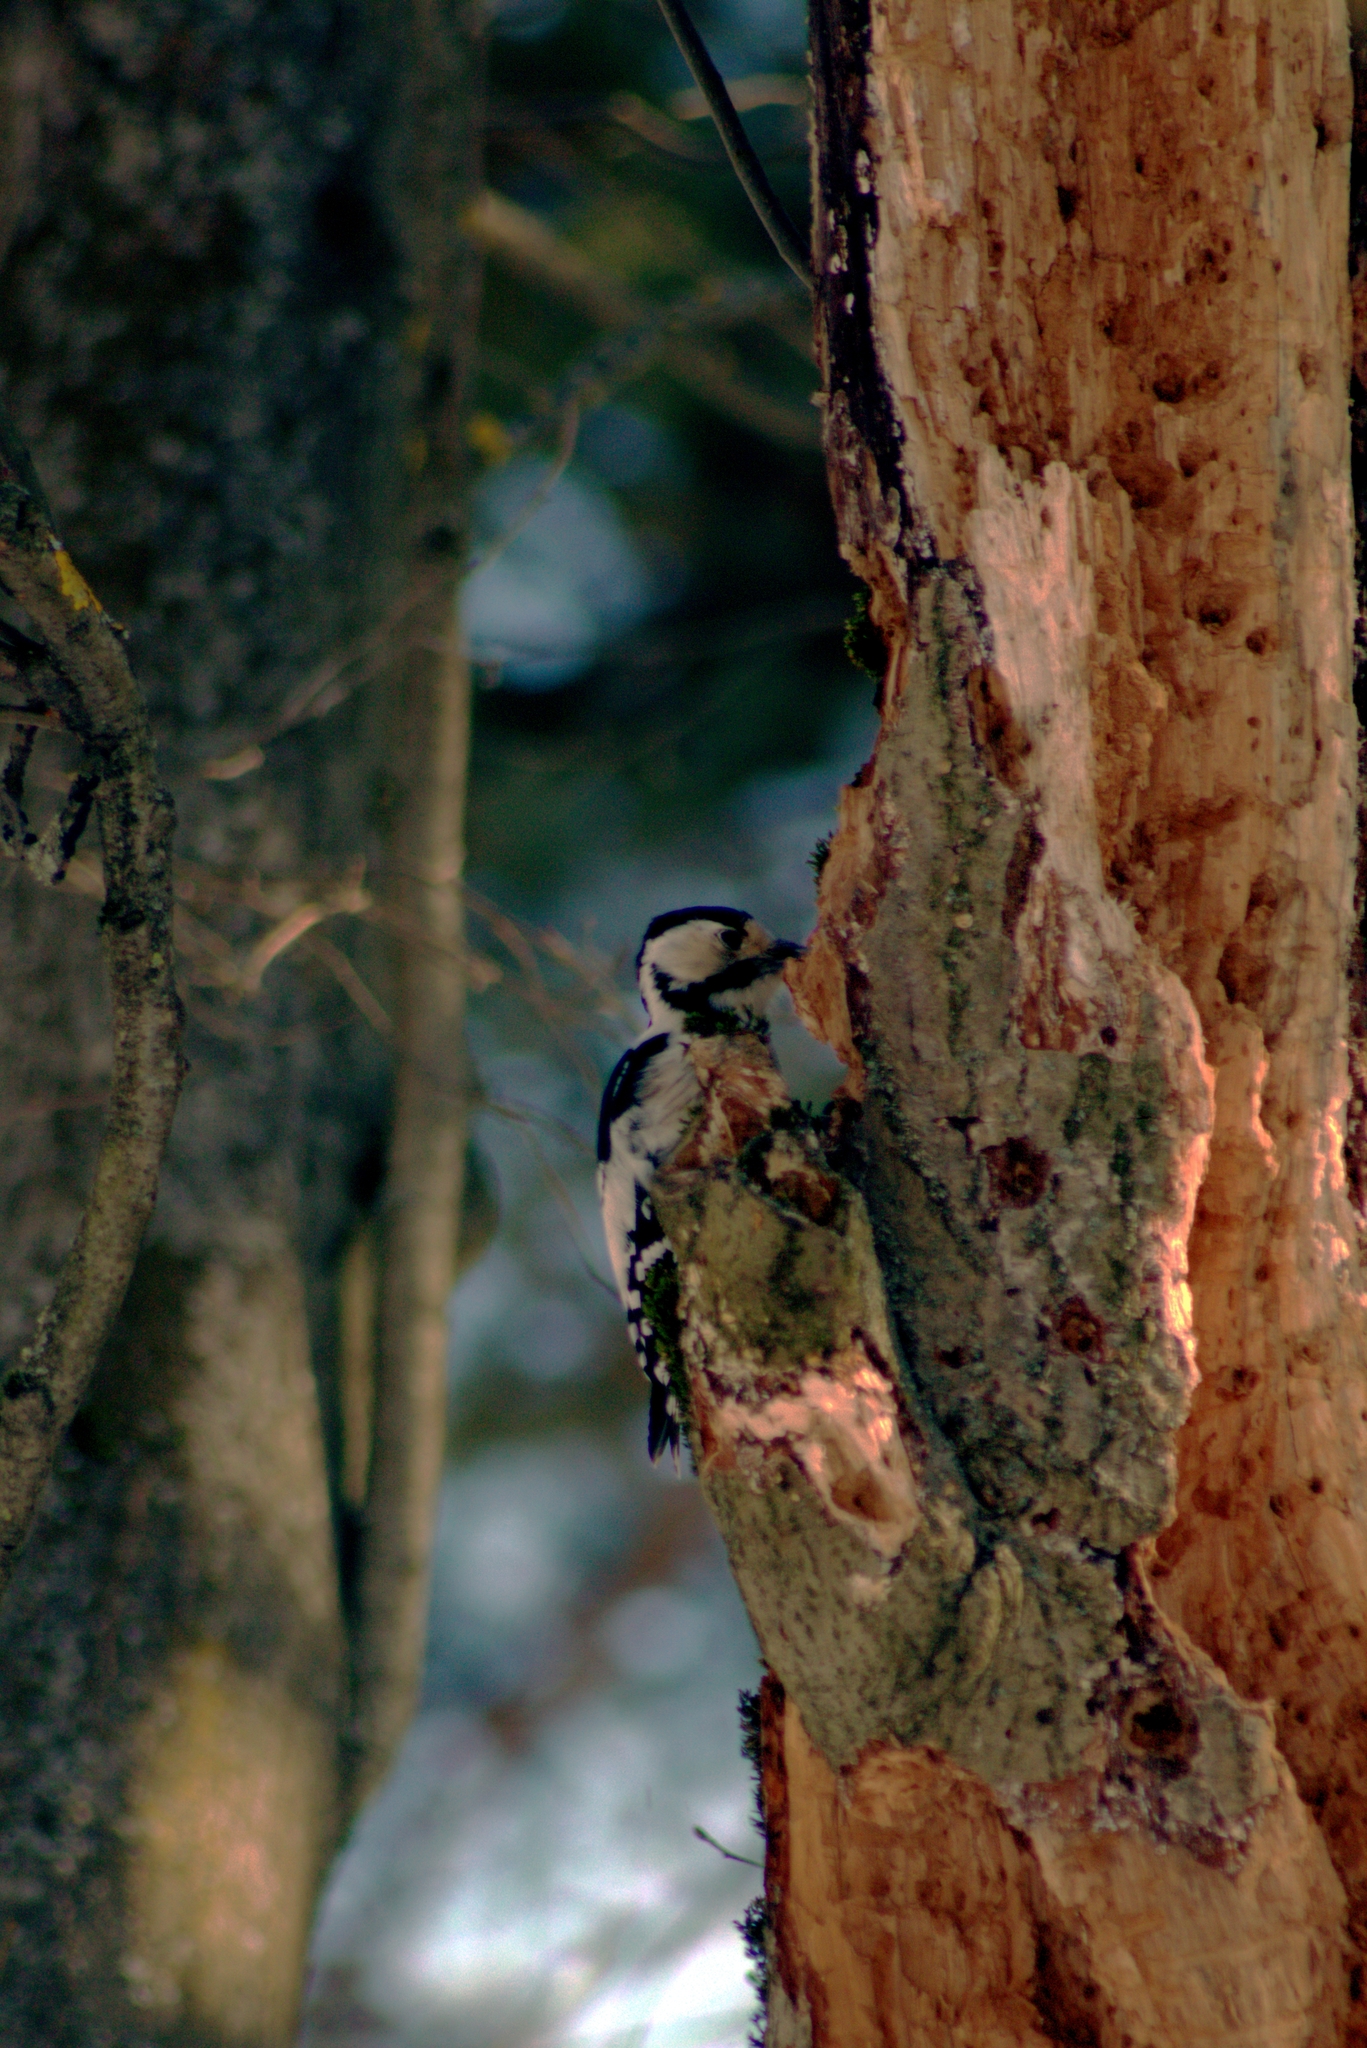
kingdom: Animalia
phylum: Chordata
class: Aves
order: Piciformes
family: Picidae
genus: Dendrocopos
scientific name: Dendrocopos leucotos
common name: White-backed woodpecker
